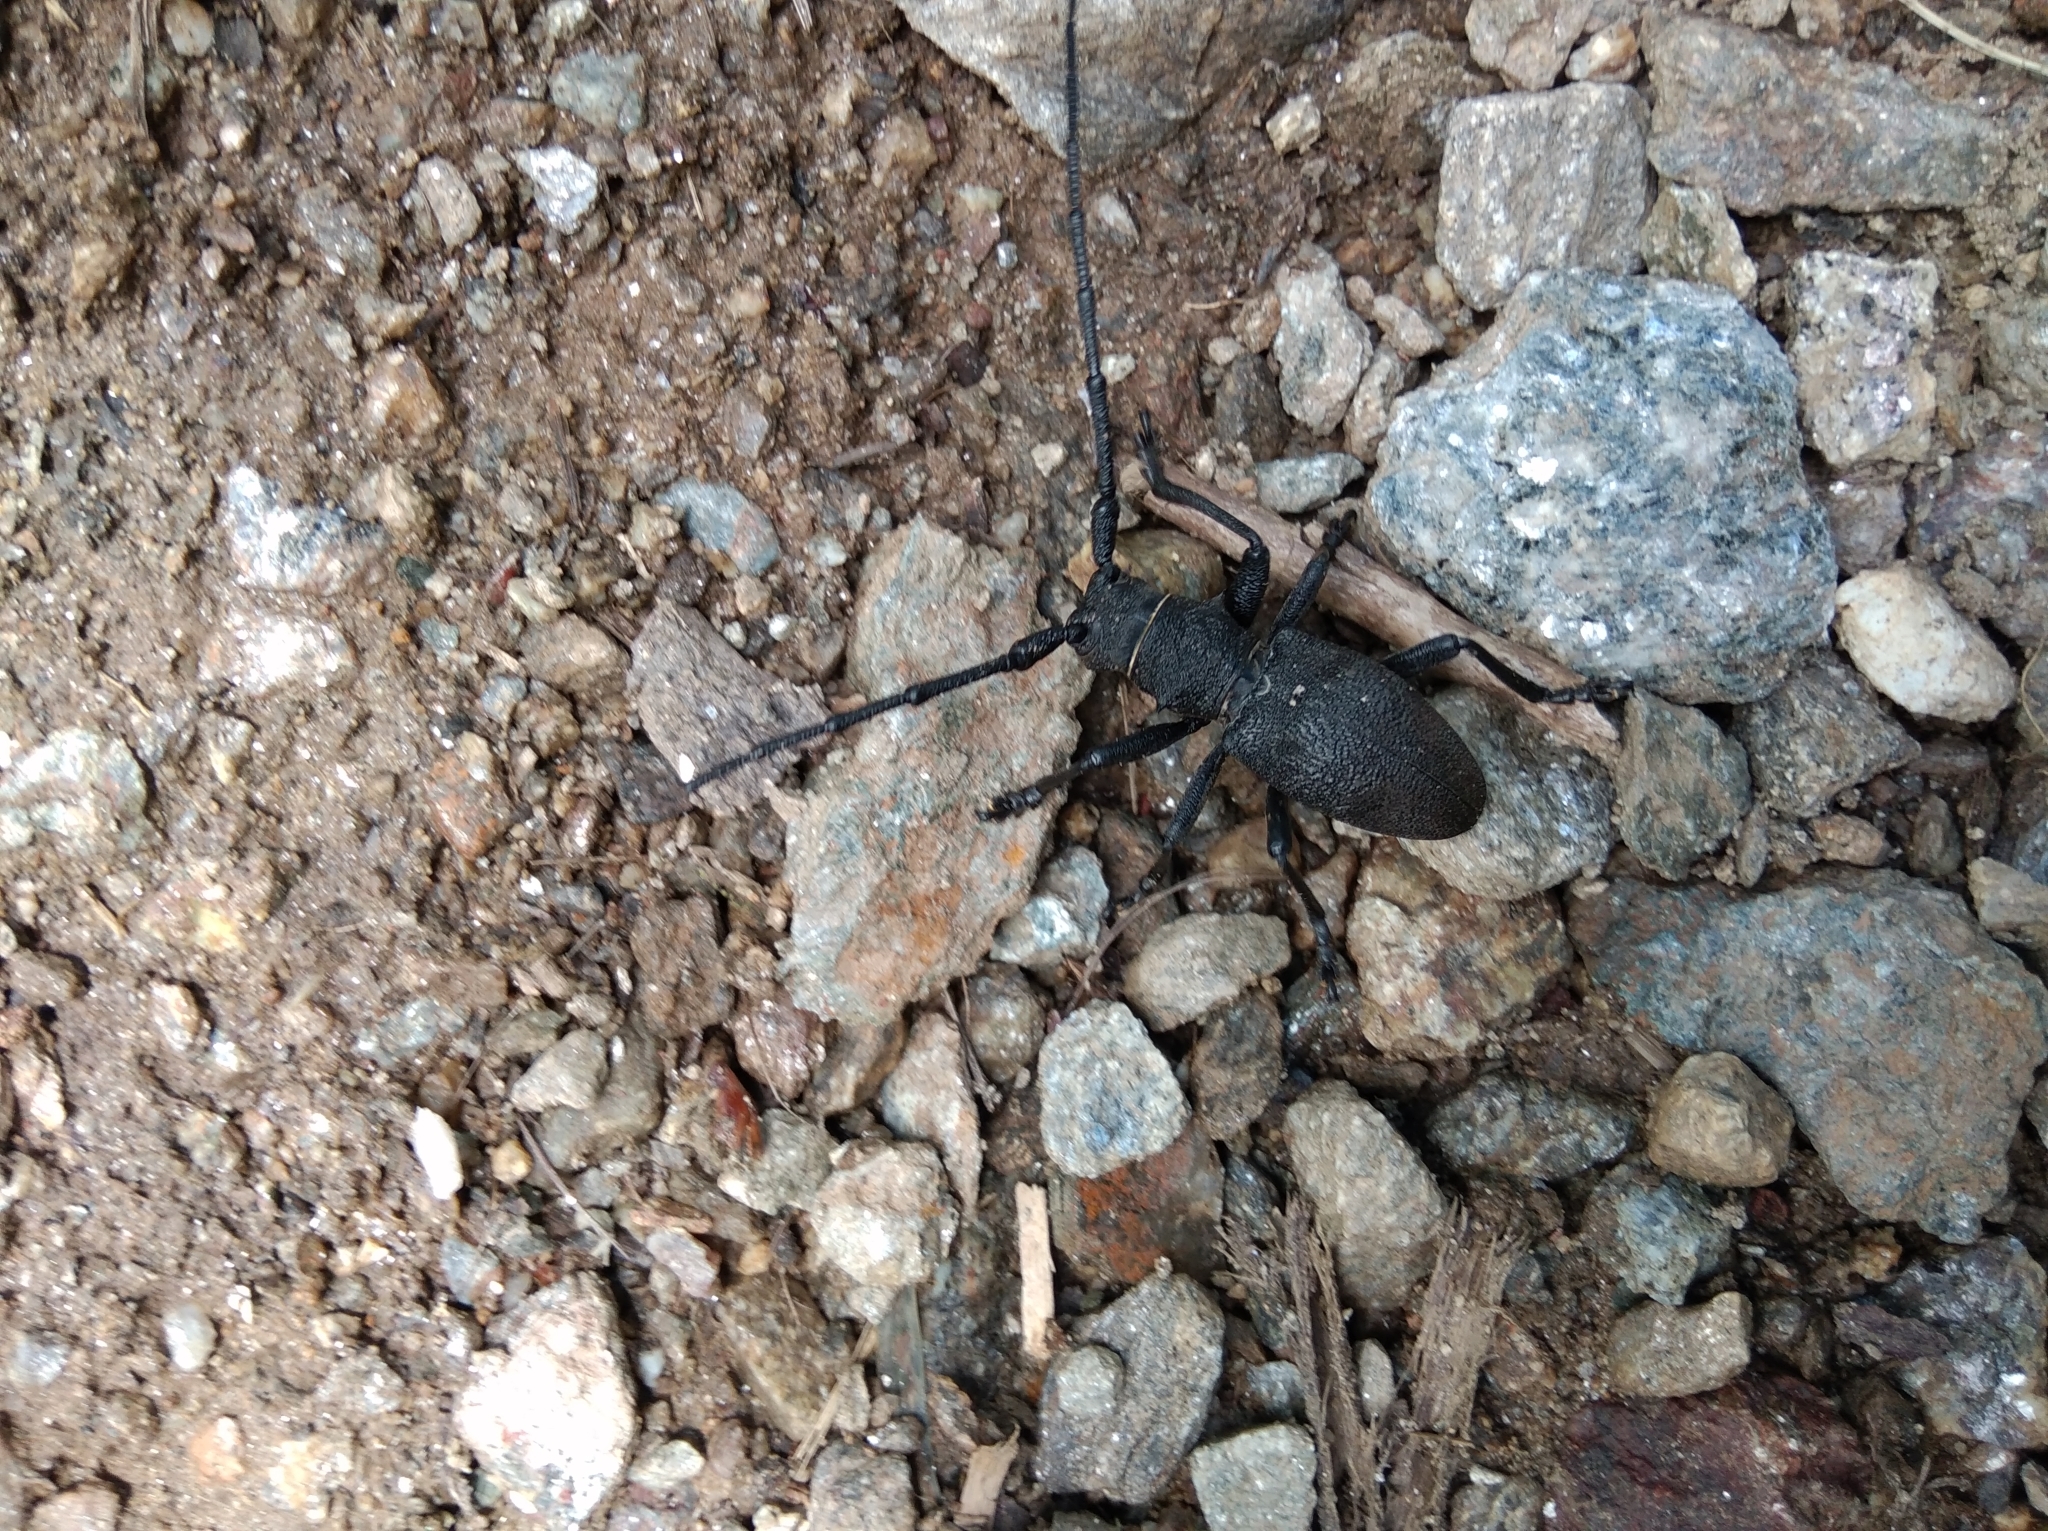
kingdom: Animalia
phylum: Arthropoda
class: Insecta
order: Coleoptera
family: Cerambycidae
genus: Morimus
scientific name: Morimus asper
